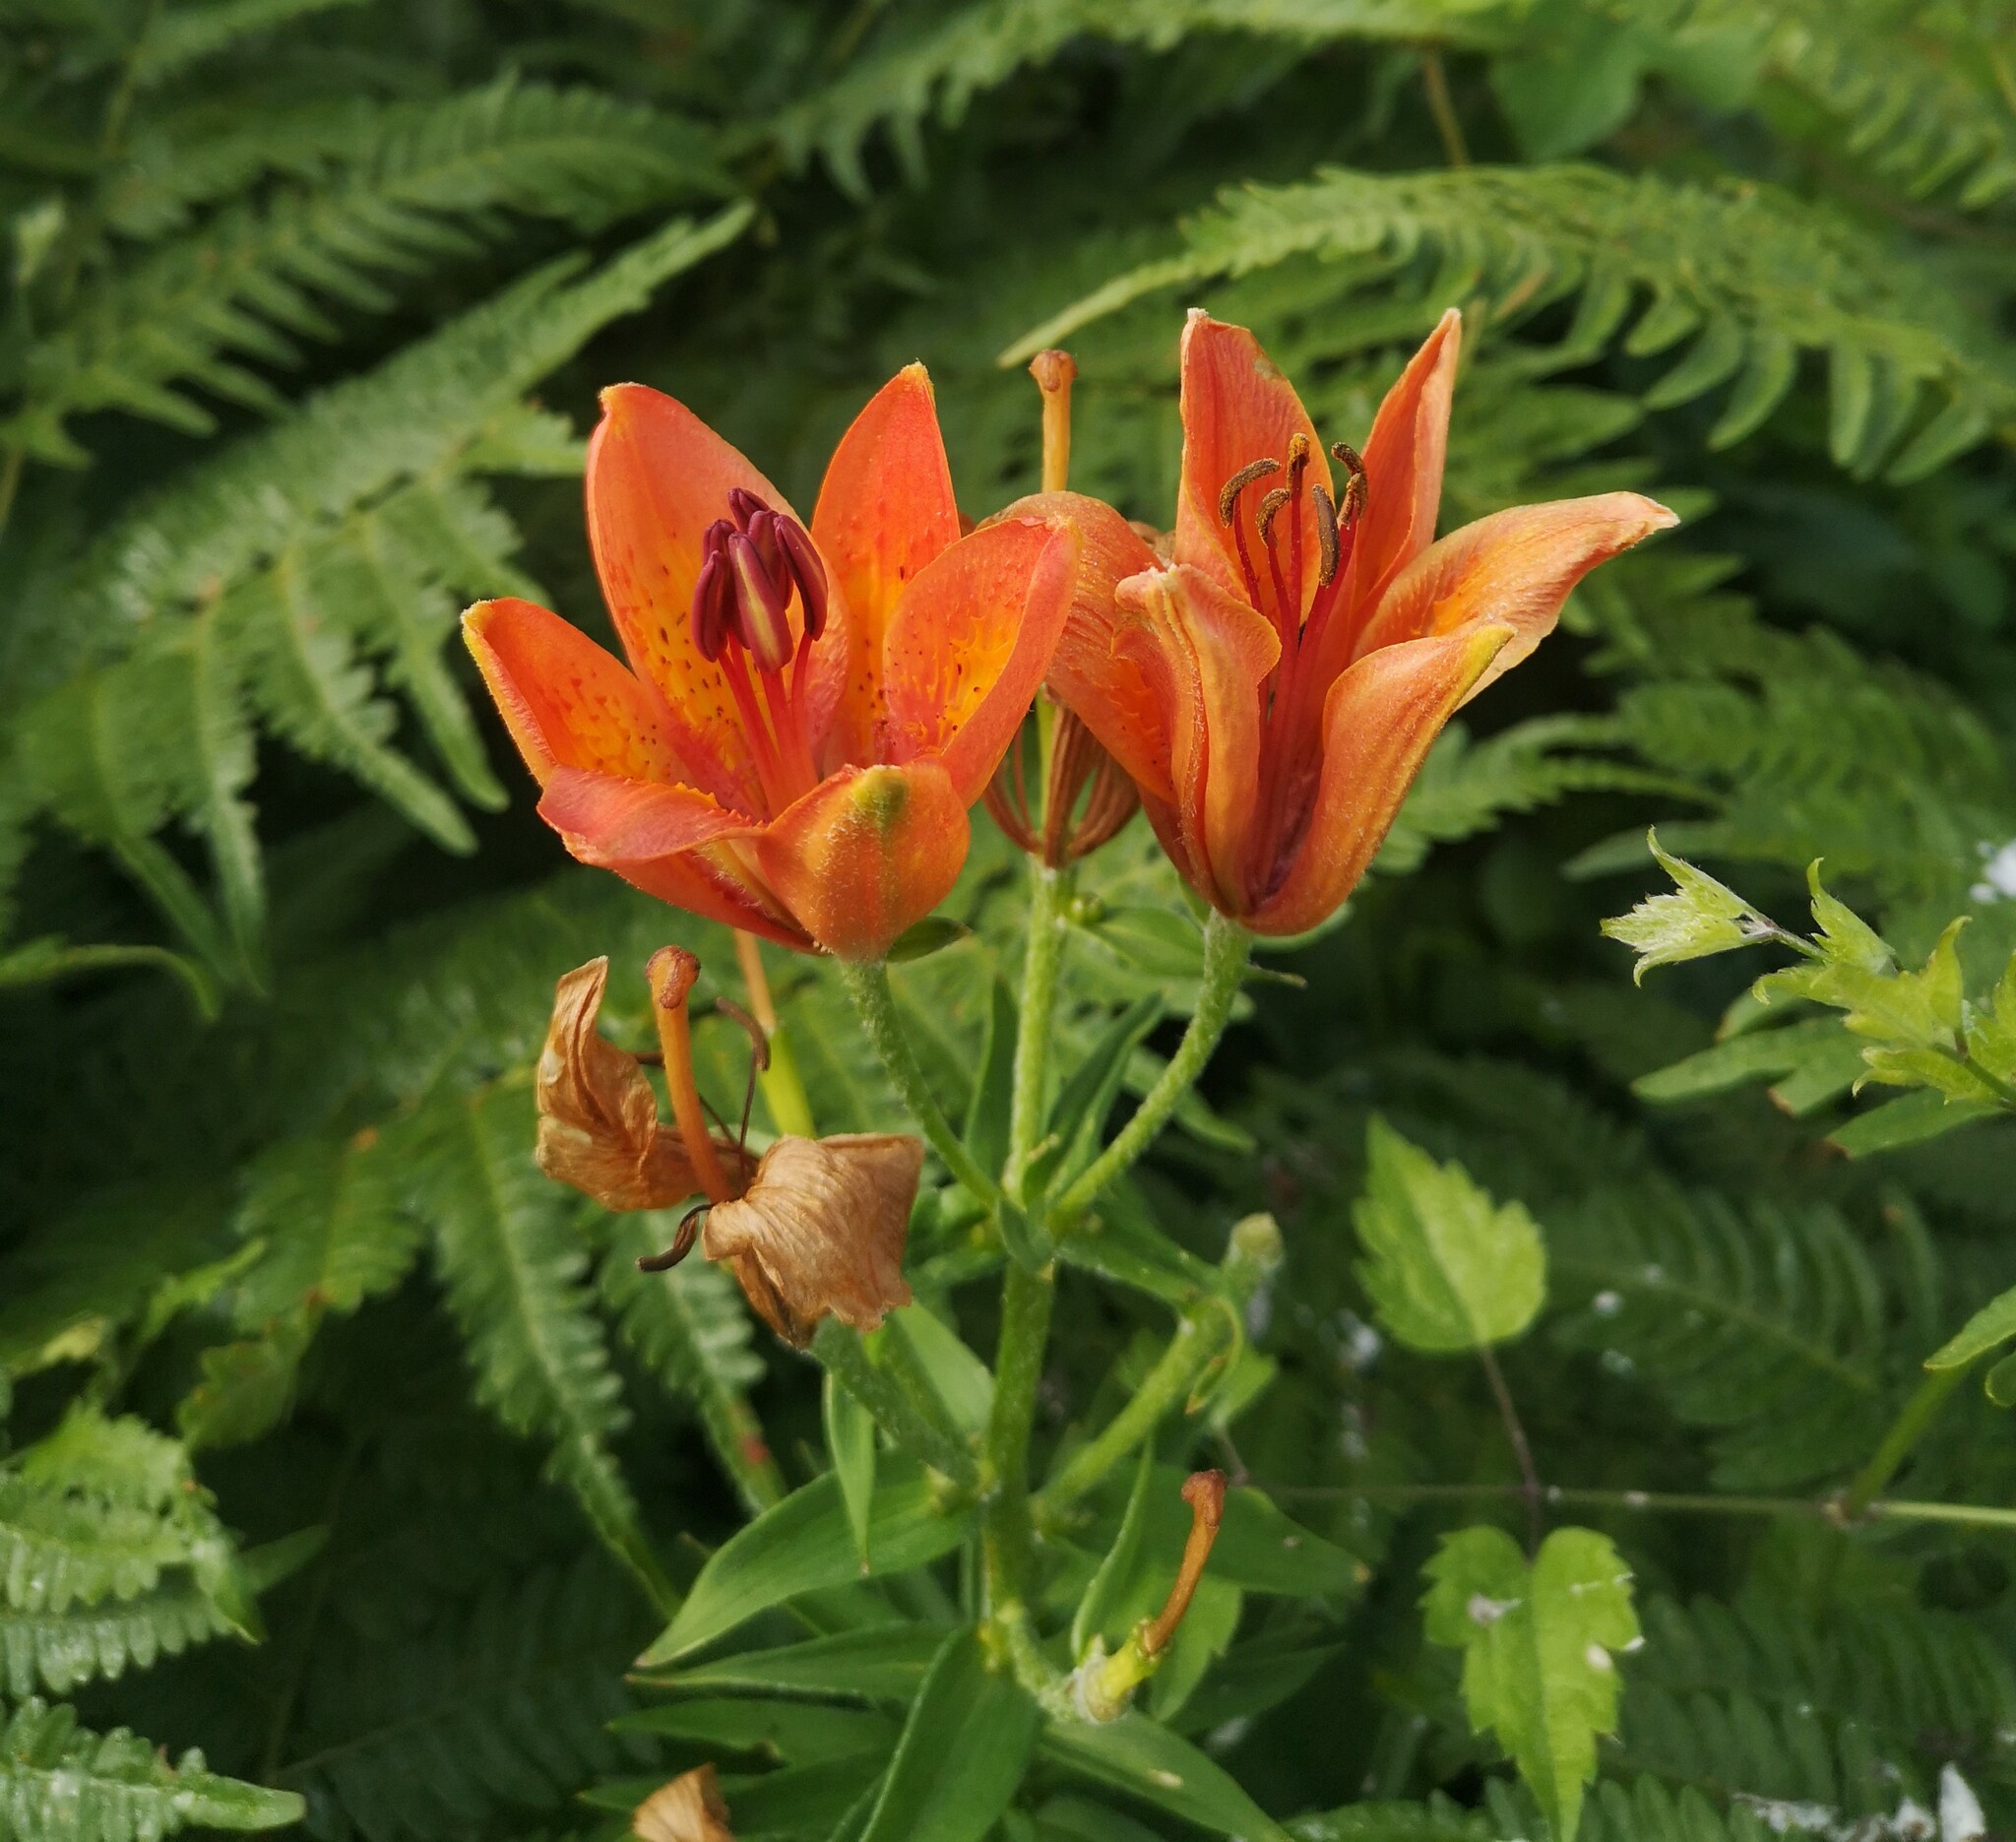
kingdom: Plantae
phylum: Tracheophyta
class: Liliopsida
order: Liliales
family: Liliaceae
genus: Lilium
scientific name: Lilium bulbiferum
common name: Orange lily
